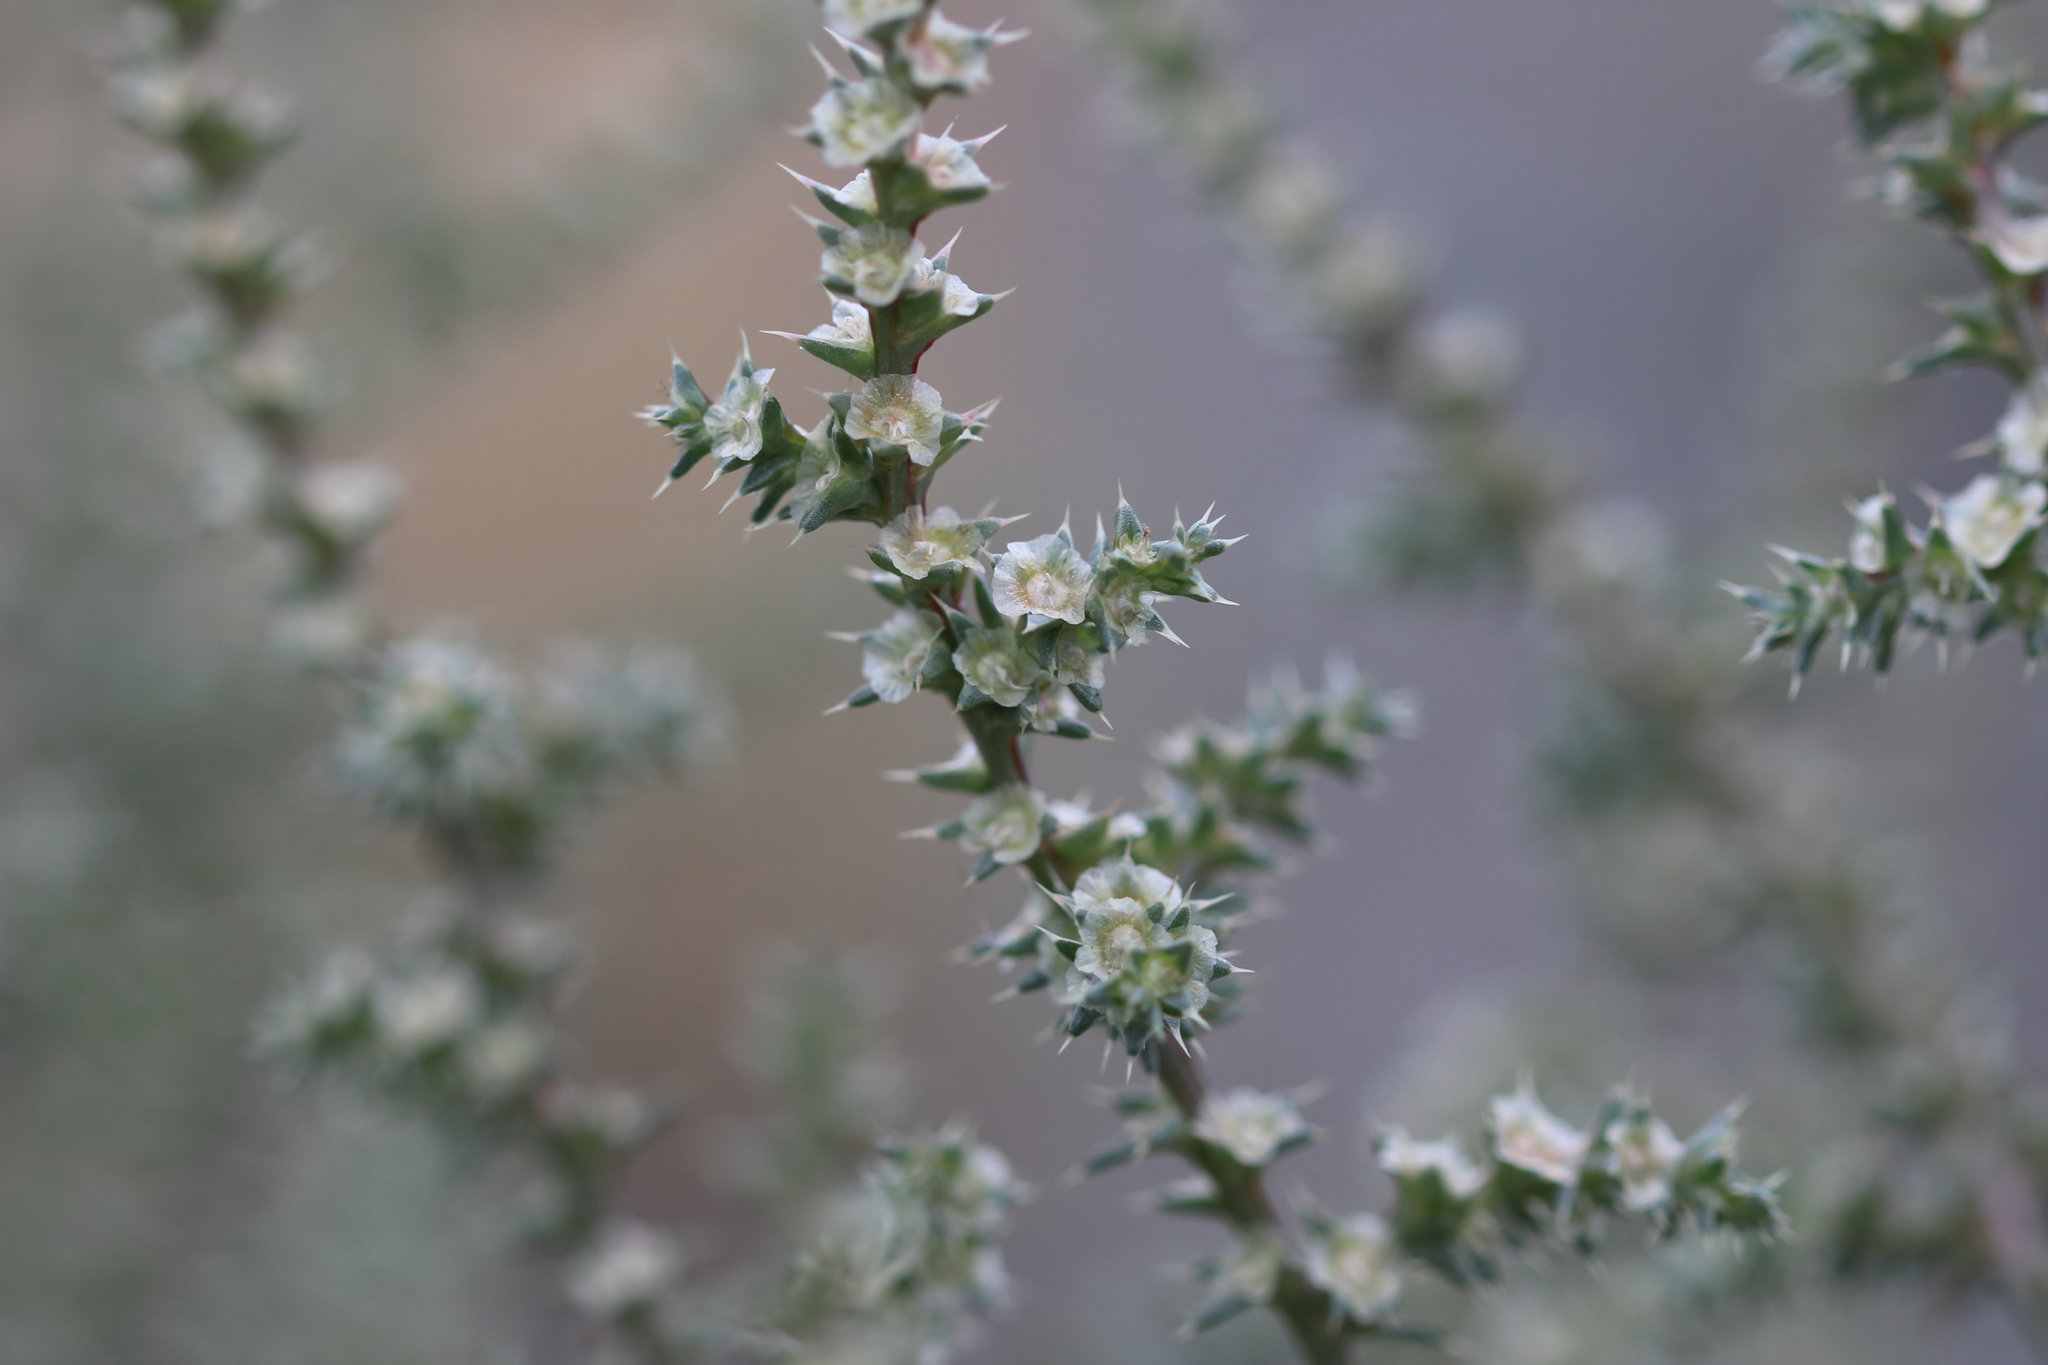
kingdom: Plantae
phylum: Tracheophyta
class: Magnoliopsida
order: Caryophyllales
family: Amaranthaceae
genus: Salsola
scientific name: Salsola tragus
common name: Prickly russian thistle
